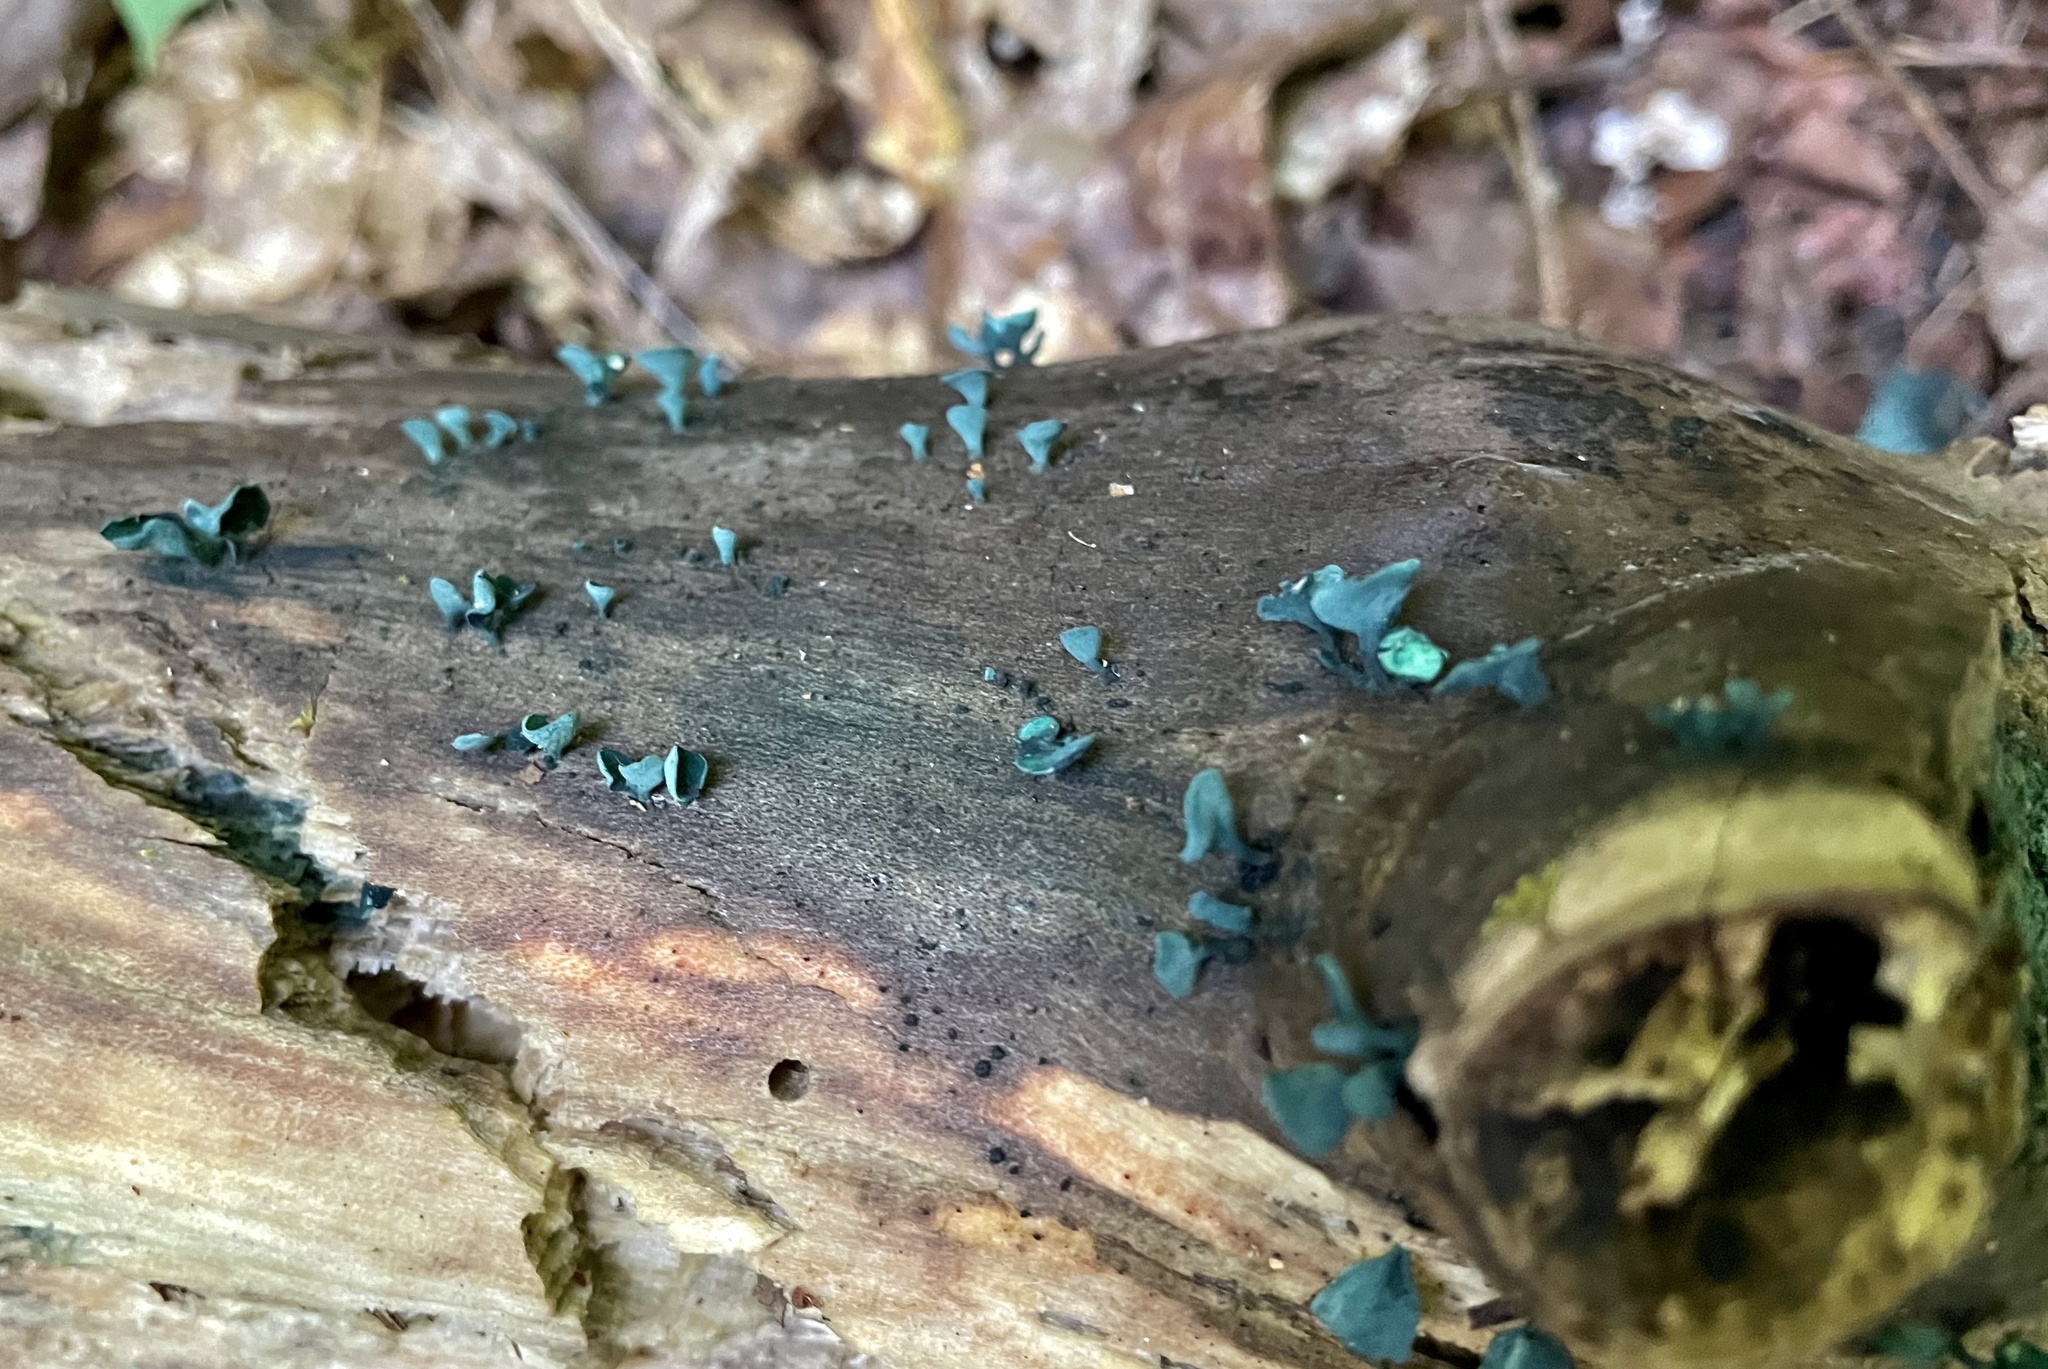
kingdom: Fungi
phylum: Ascomycota
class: Leotiomycetes
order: Helotiales
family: Chlorociboriaceae
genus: Chlorociboria
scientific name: Chlorociboria aeruginascens
